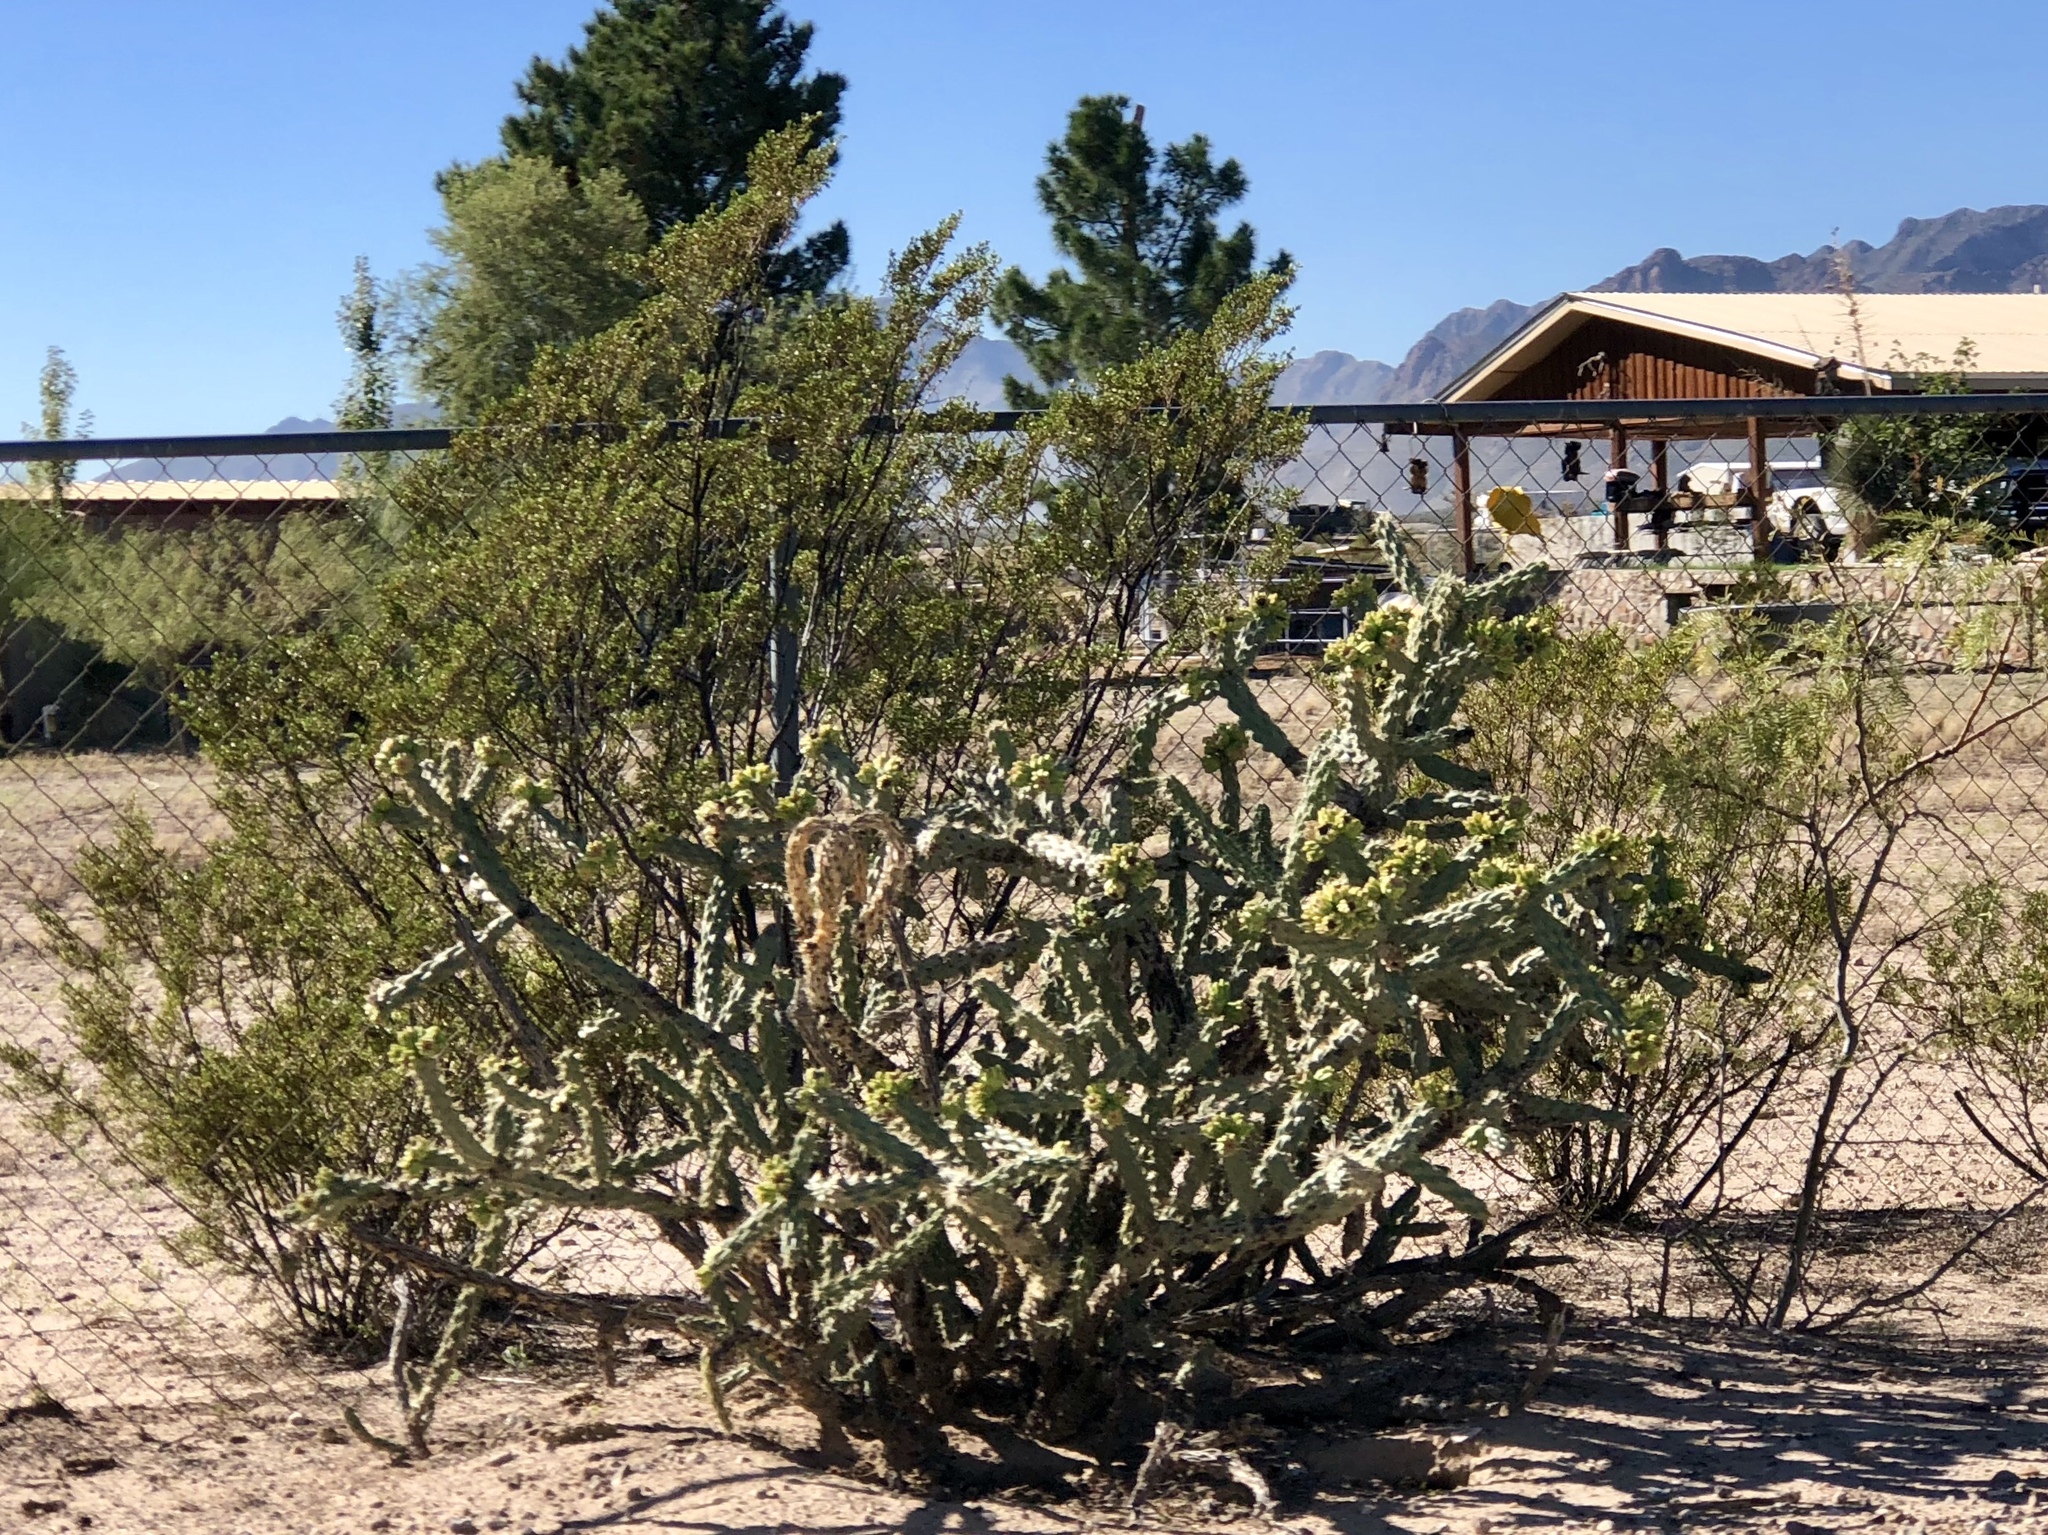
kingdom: Plantae
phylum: Tracheophyta
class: Magnoliopsida
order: Caryophyllales
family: Cactaceae
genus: Cylindropuntia
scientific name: Cylindropuntia imbricata
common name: Candelabrum cactus
